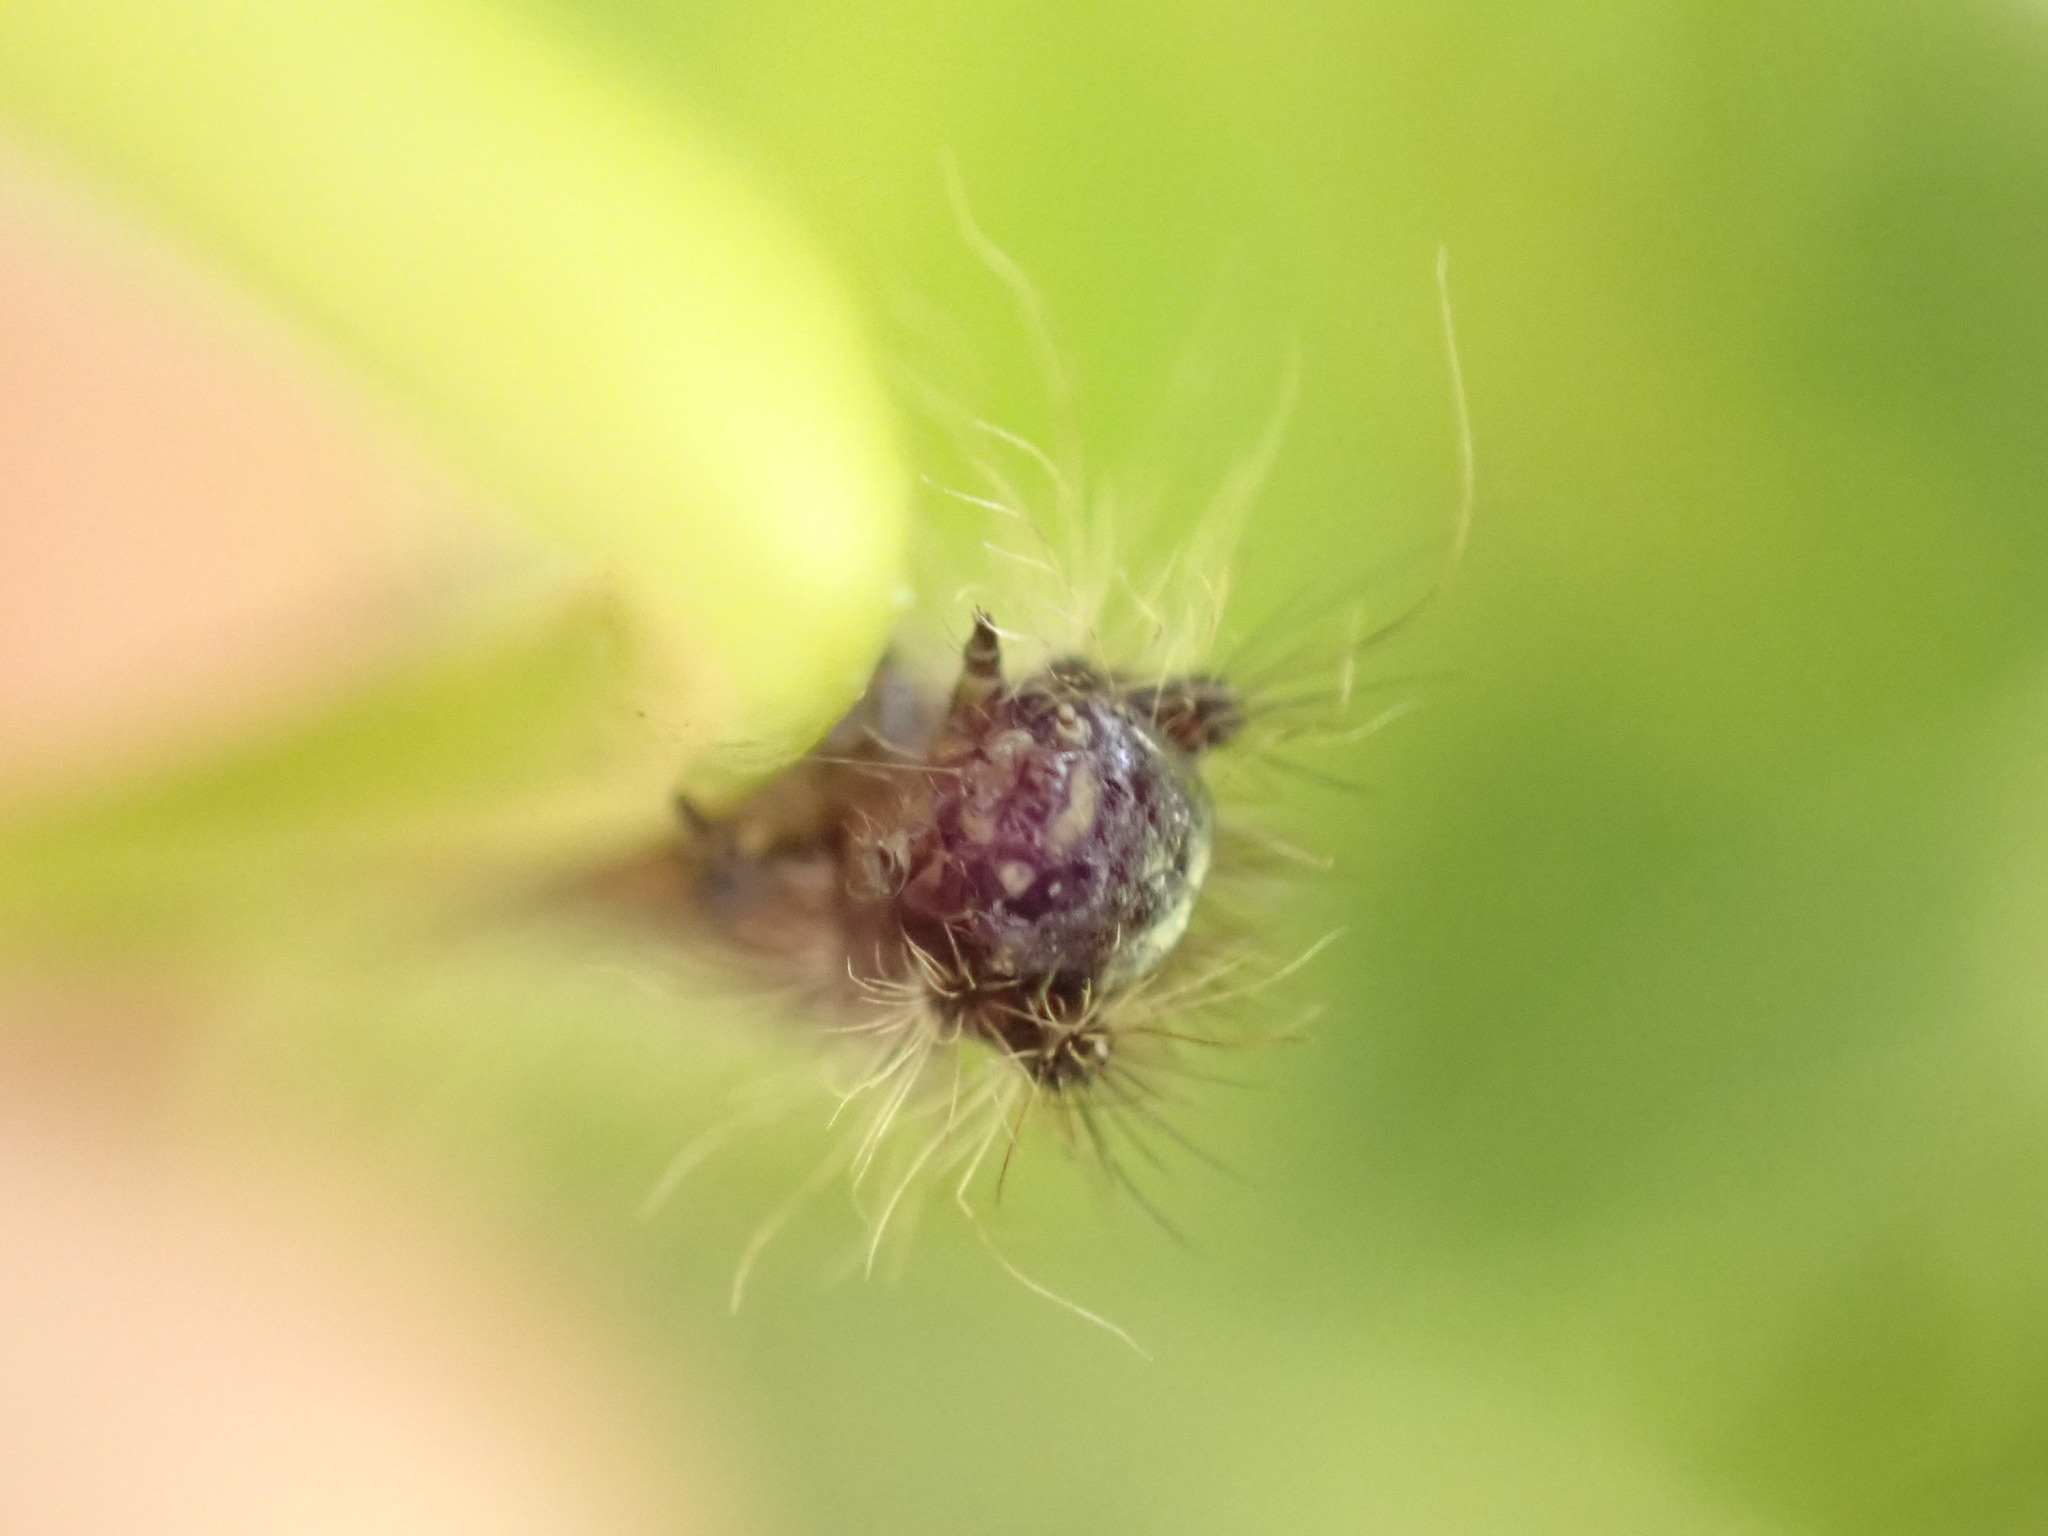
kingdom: Animalia
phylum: Arthropoda
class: Insecta
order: Lepidoptera
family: Erebidae
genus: Lymantria
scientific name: Lymantria dispar
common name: Gypsy moth
